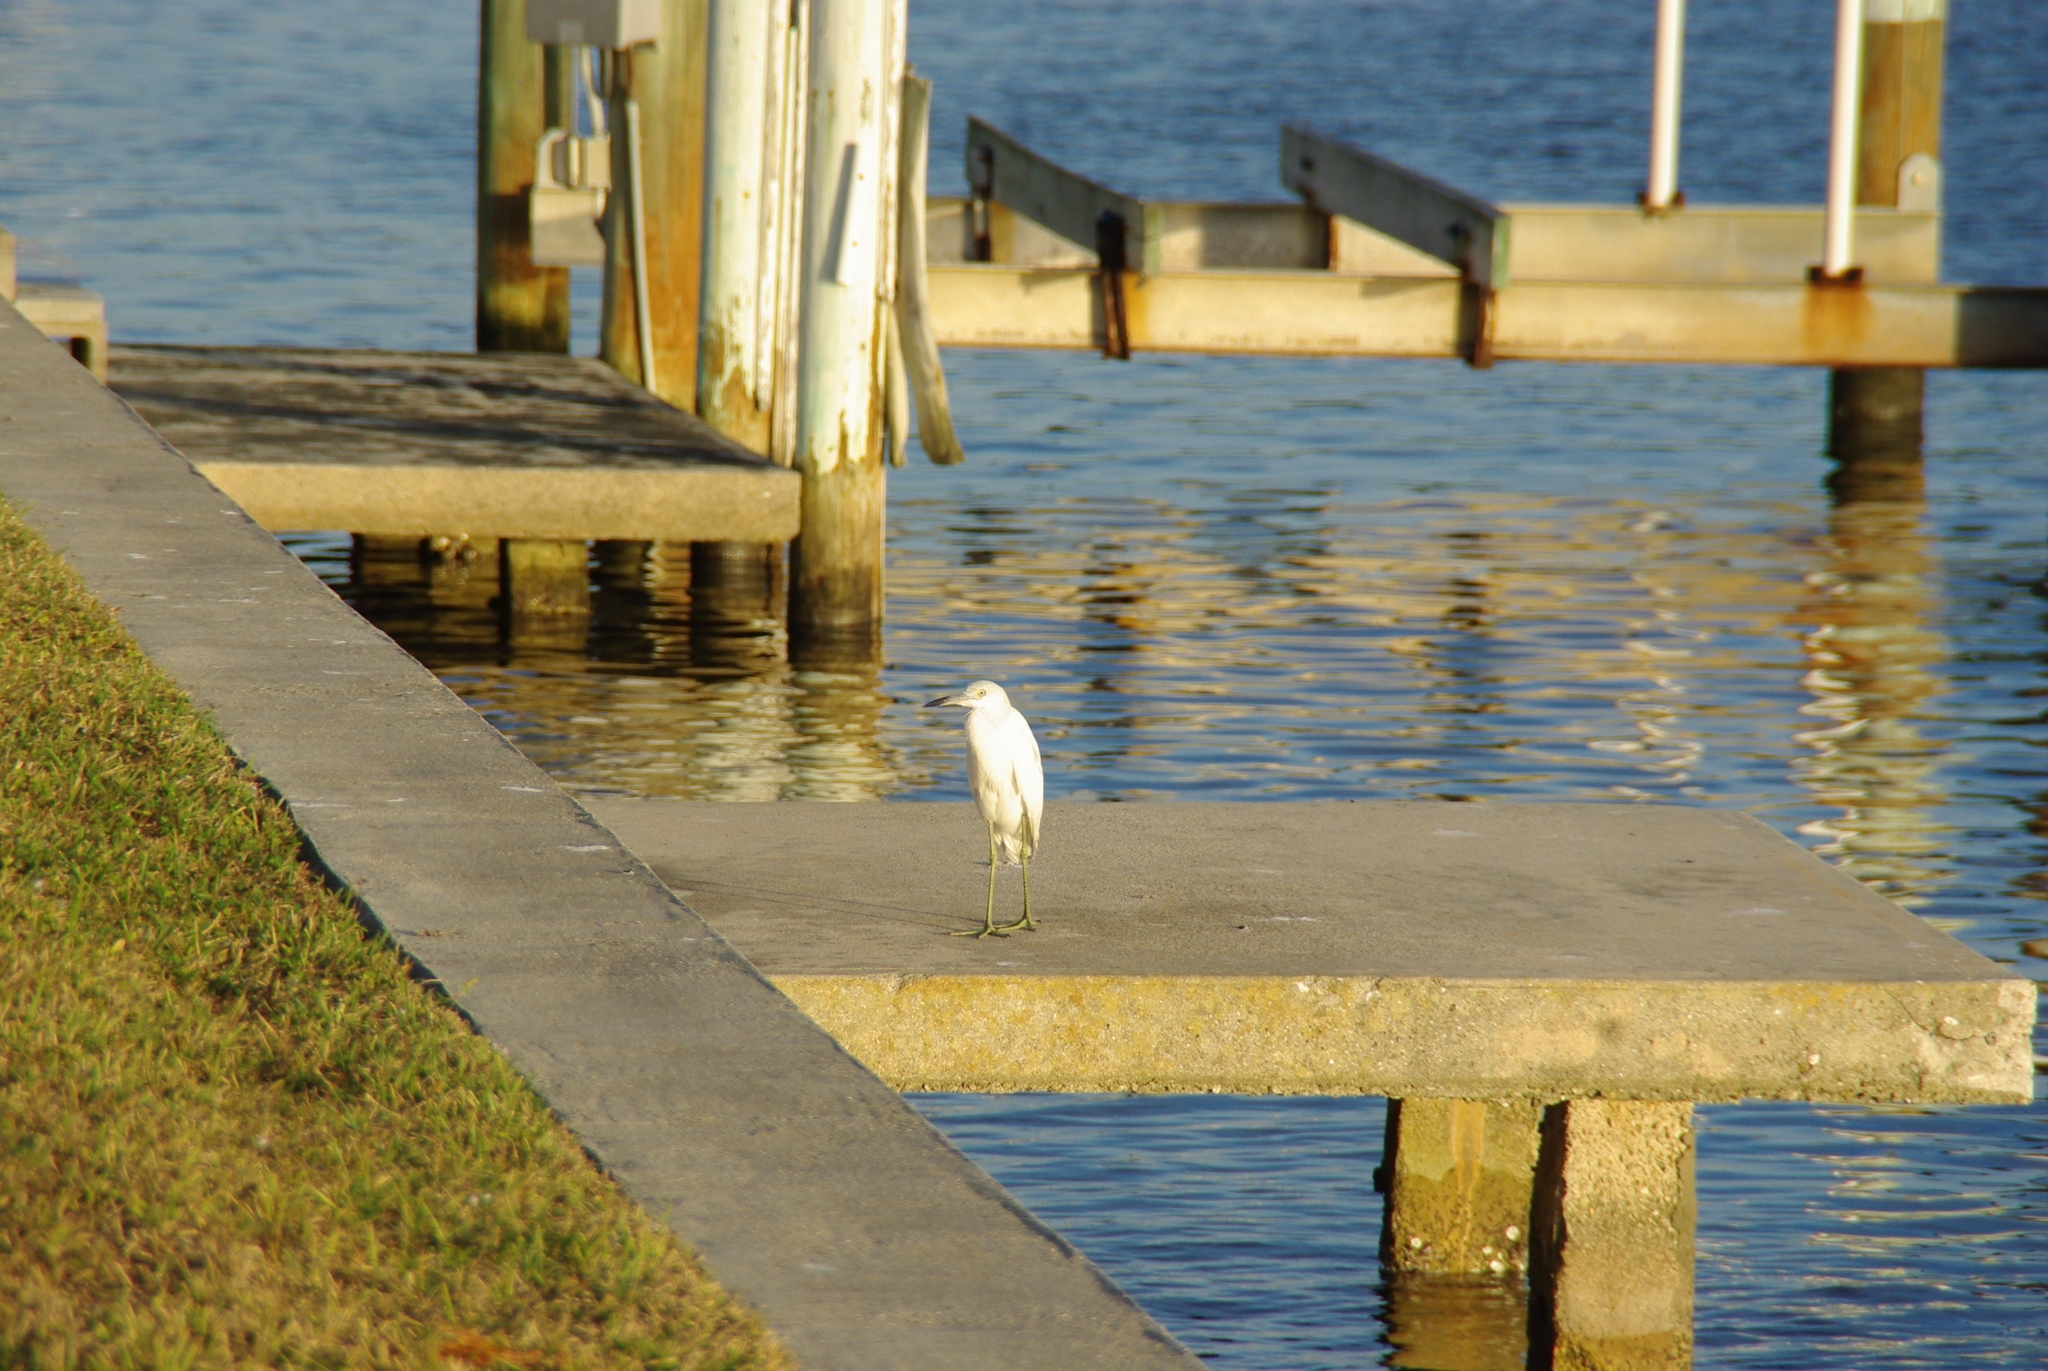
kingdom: Animalia
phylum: Chordata
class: Aves
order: Pelecaniformes
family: Ardeidae
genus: Egretta
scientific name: Egretta caerulea
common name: Little blue heron
